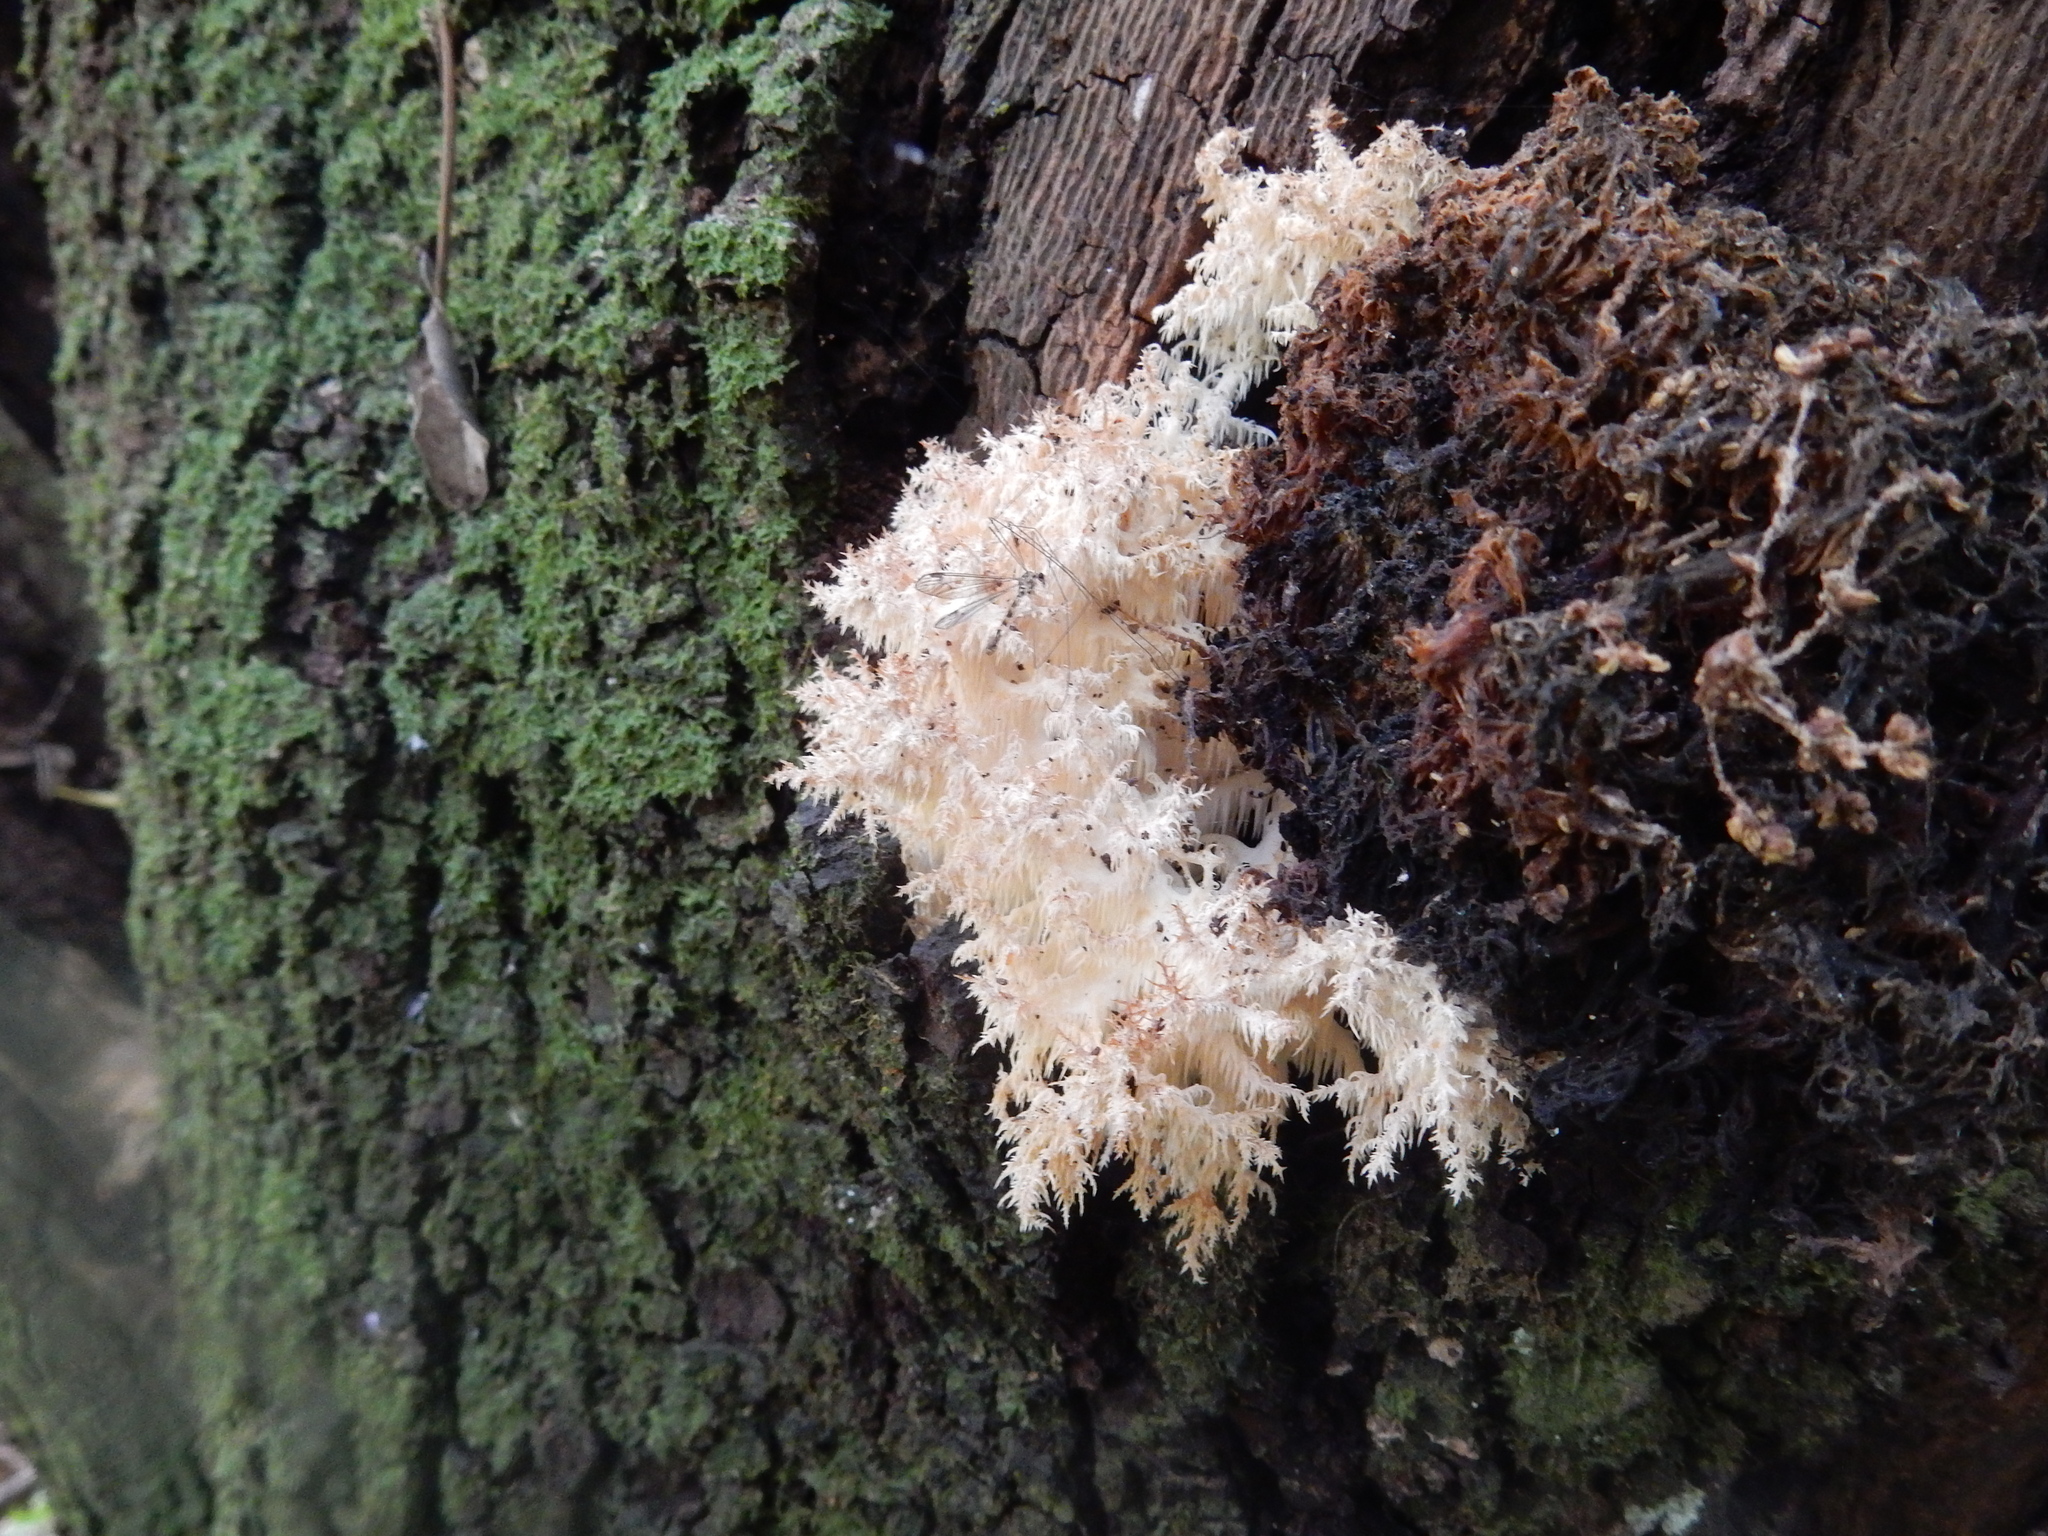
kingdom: Fungi
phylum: Basidiomycota
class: Agaricomycetes
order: Russulales
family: Hericiaceae
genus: Hericium
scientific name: Hericium novae-zealandiae
